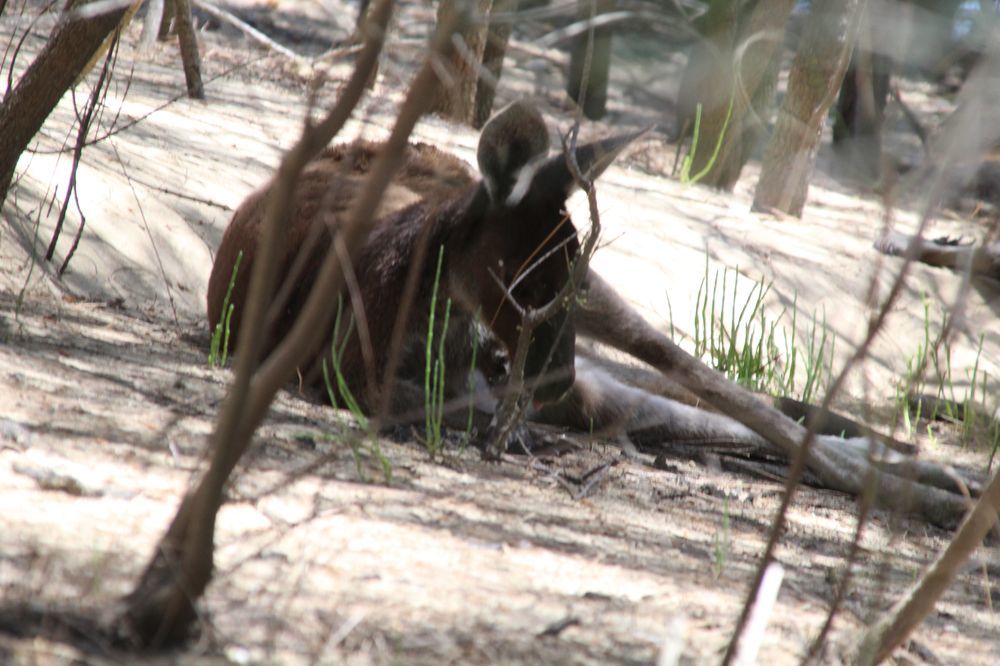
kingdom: Animalia
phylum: Chordata
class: Mammalia
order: Diprotodontia
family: Macropodidae
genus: Macropus
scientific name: Macropus fuliginosus
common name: Western grey kangaroo
